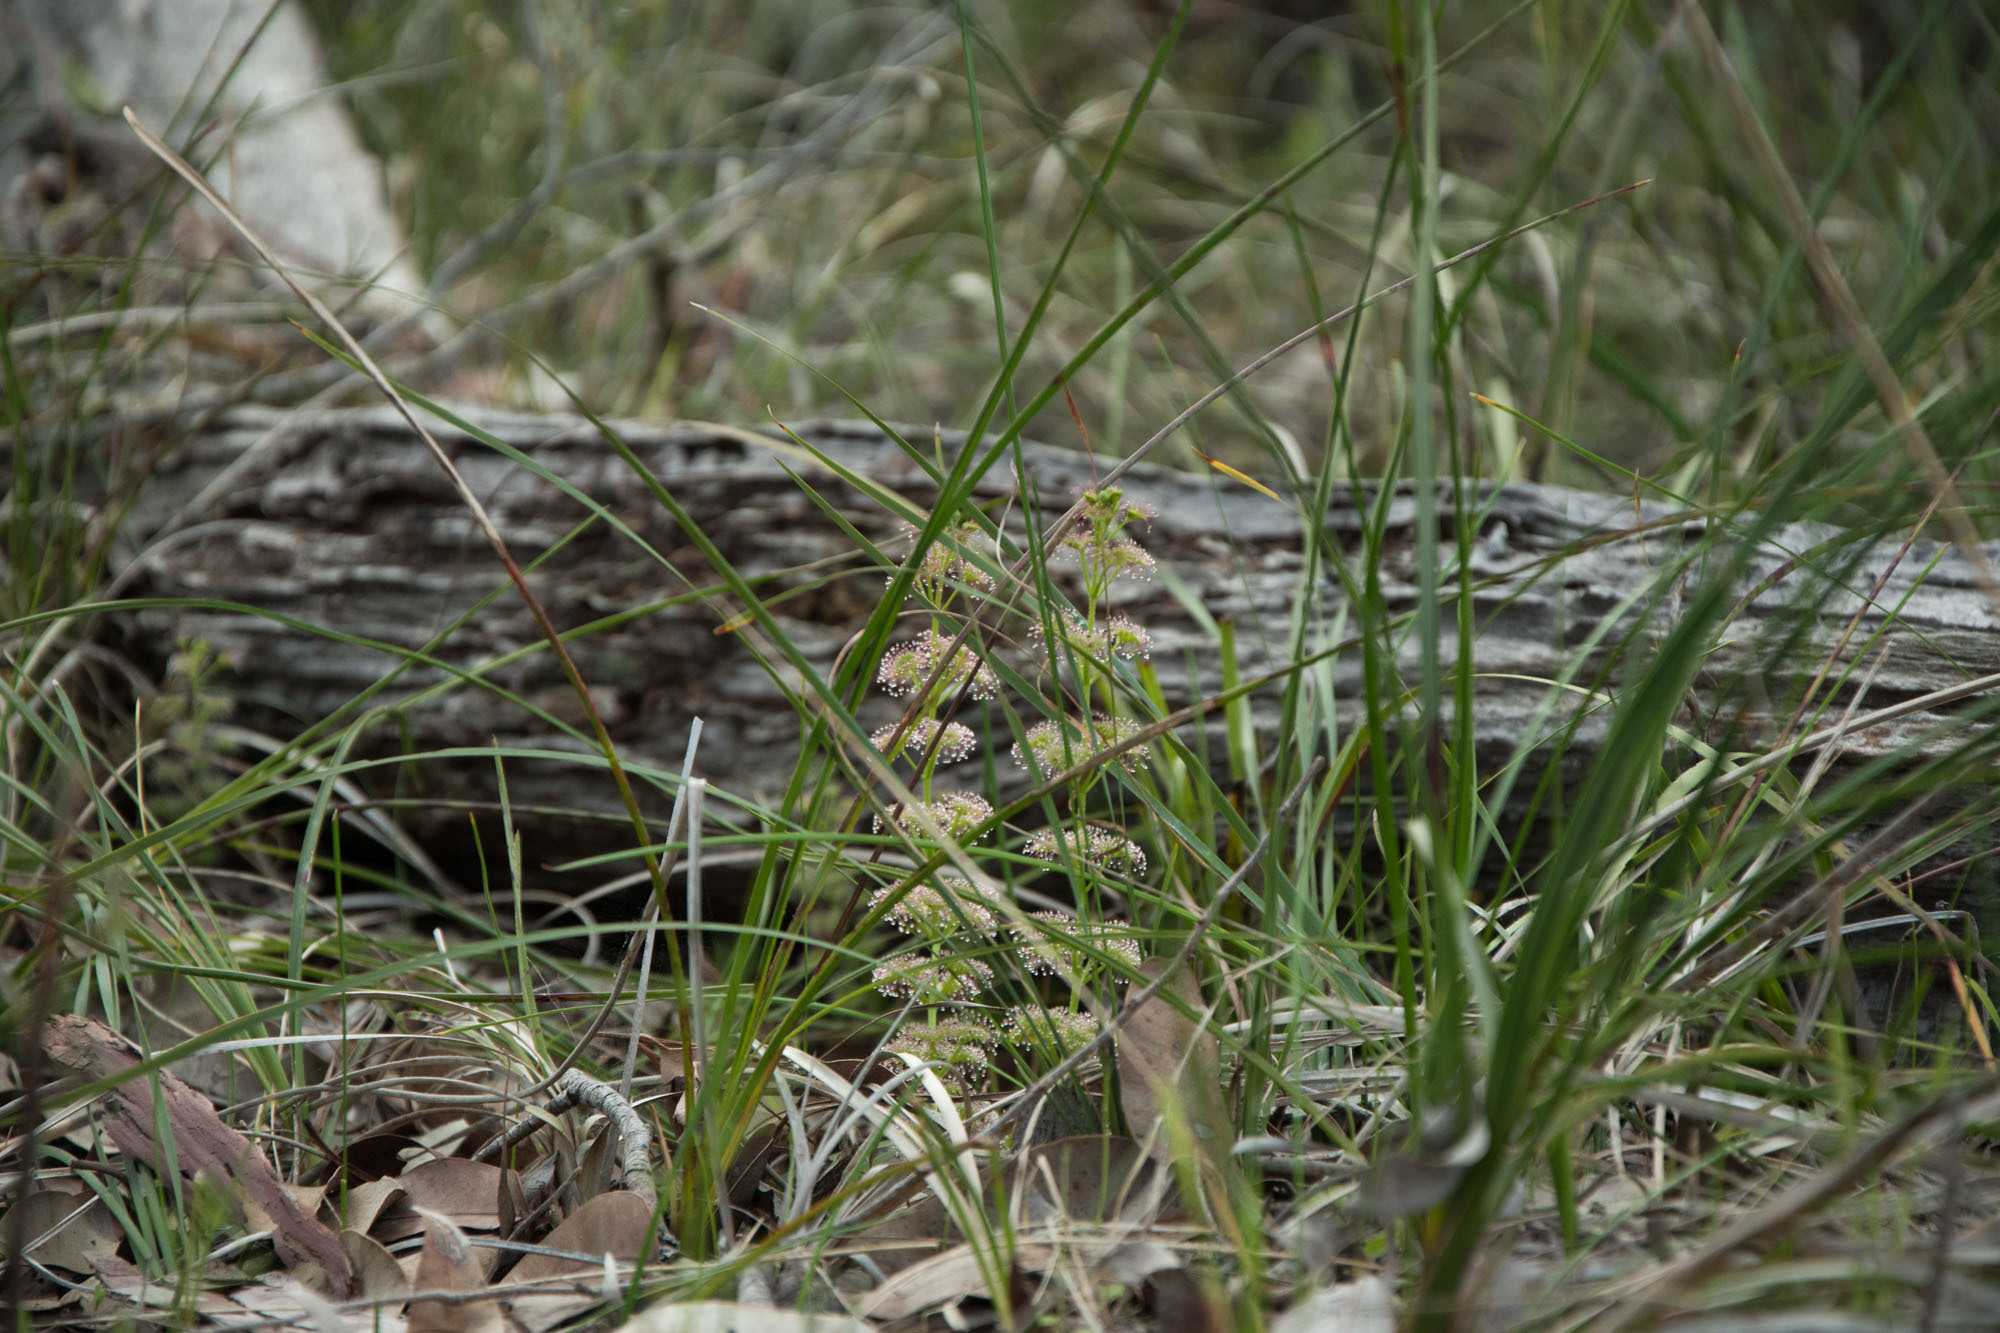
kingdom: Plantae
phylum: Tracheophyta
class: Magnoliopsida
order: Caryophyllales
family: Droseraceae
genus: Drosera
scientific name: Drosera stolonifera
